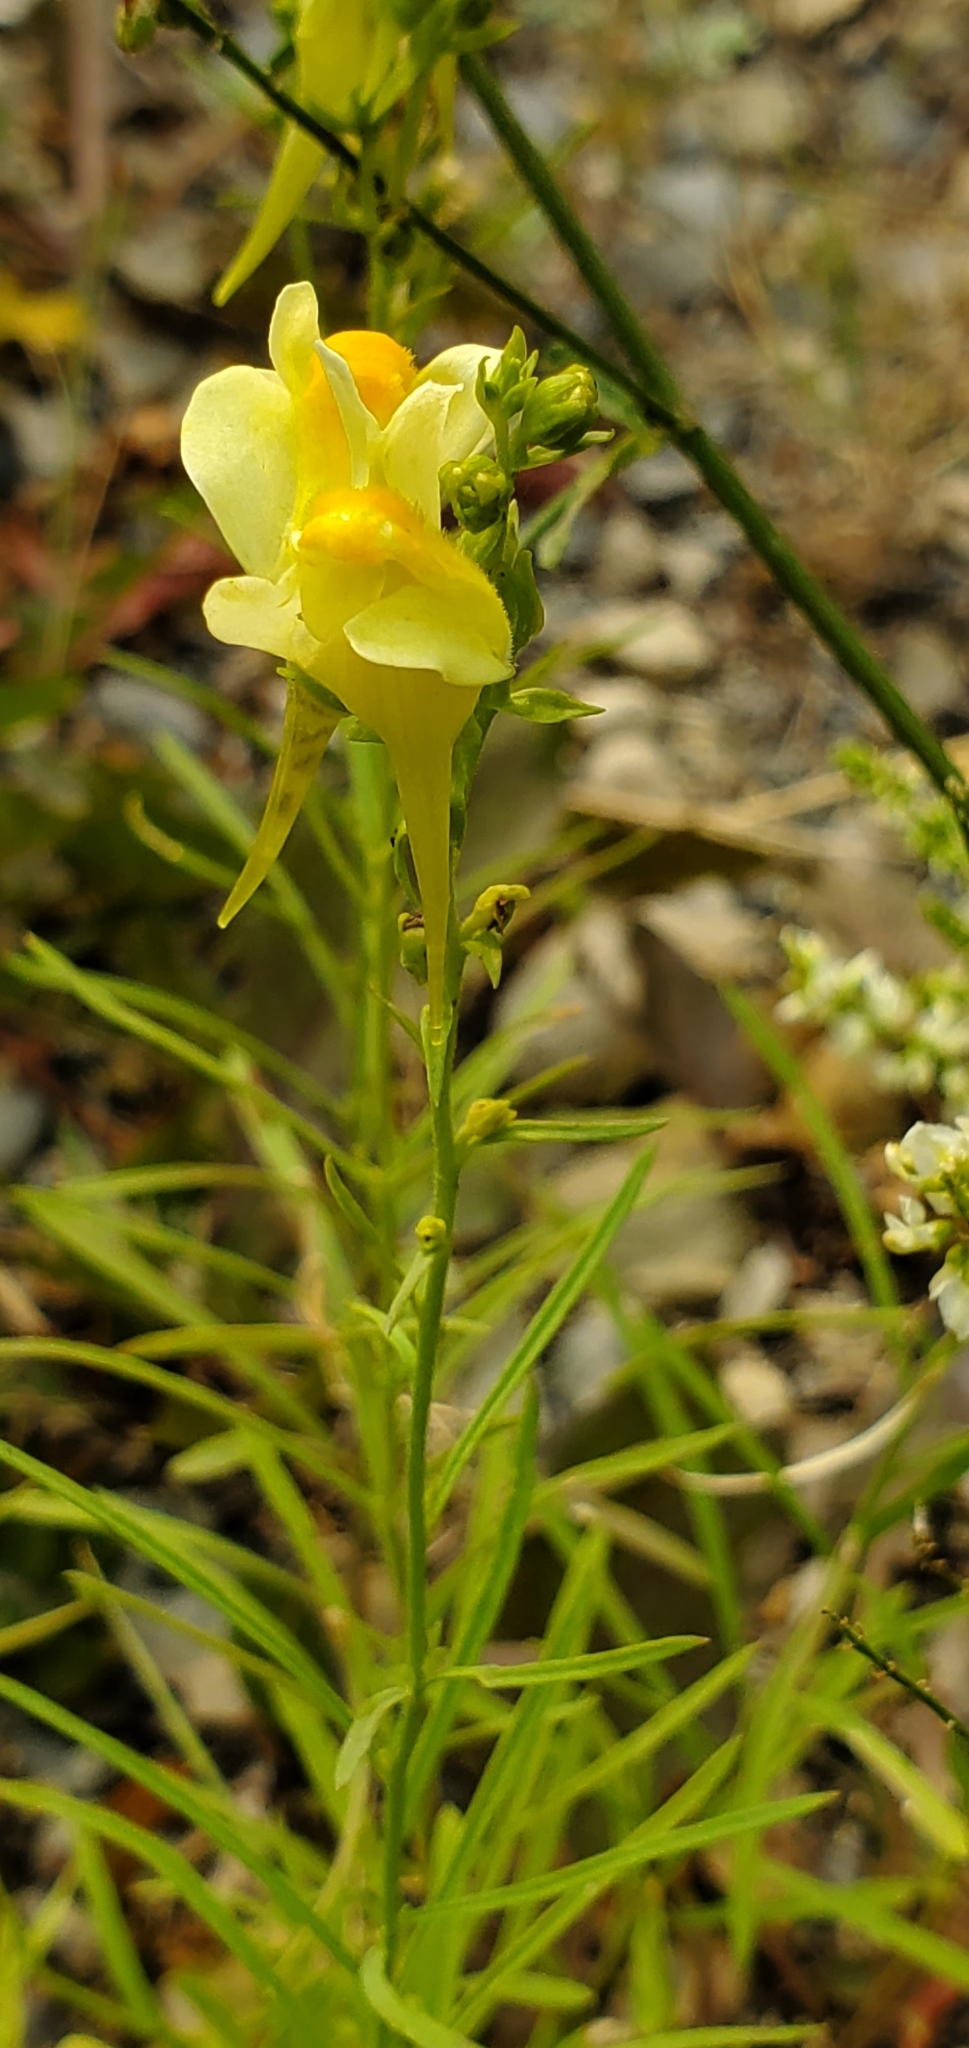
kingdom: Plantae
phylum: Tracheophyta
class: Magnoliopsida
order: Lamiales
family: Plantaginaceae
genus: Linaria
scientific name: Linaria vulgaris
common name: Butter and eggs
